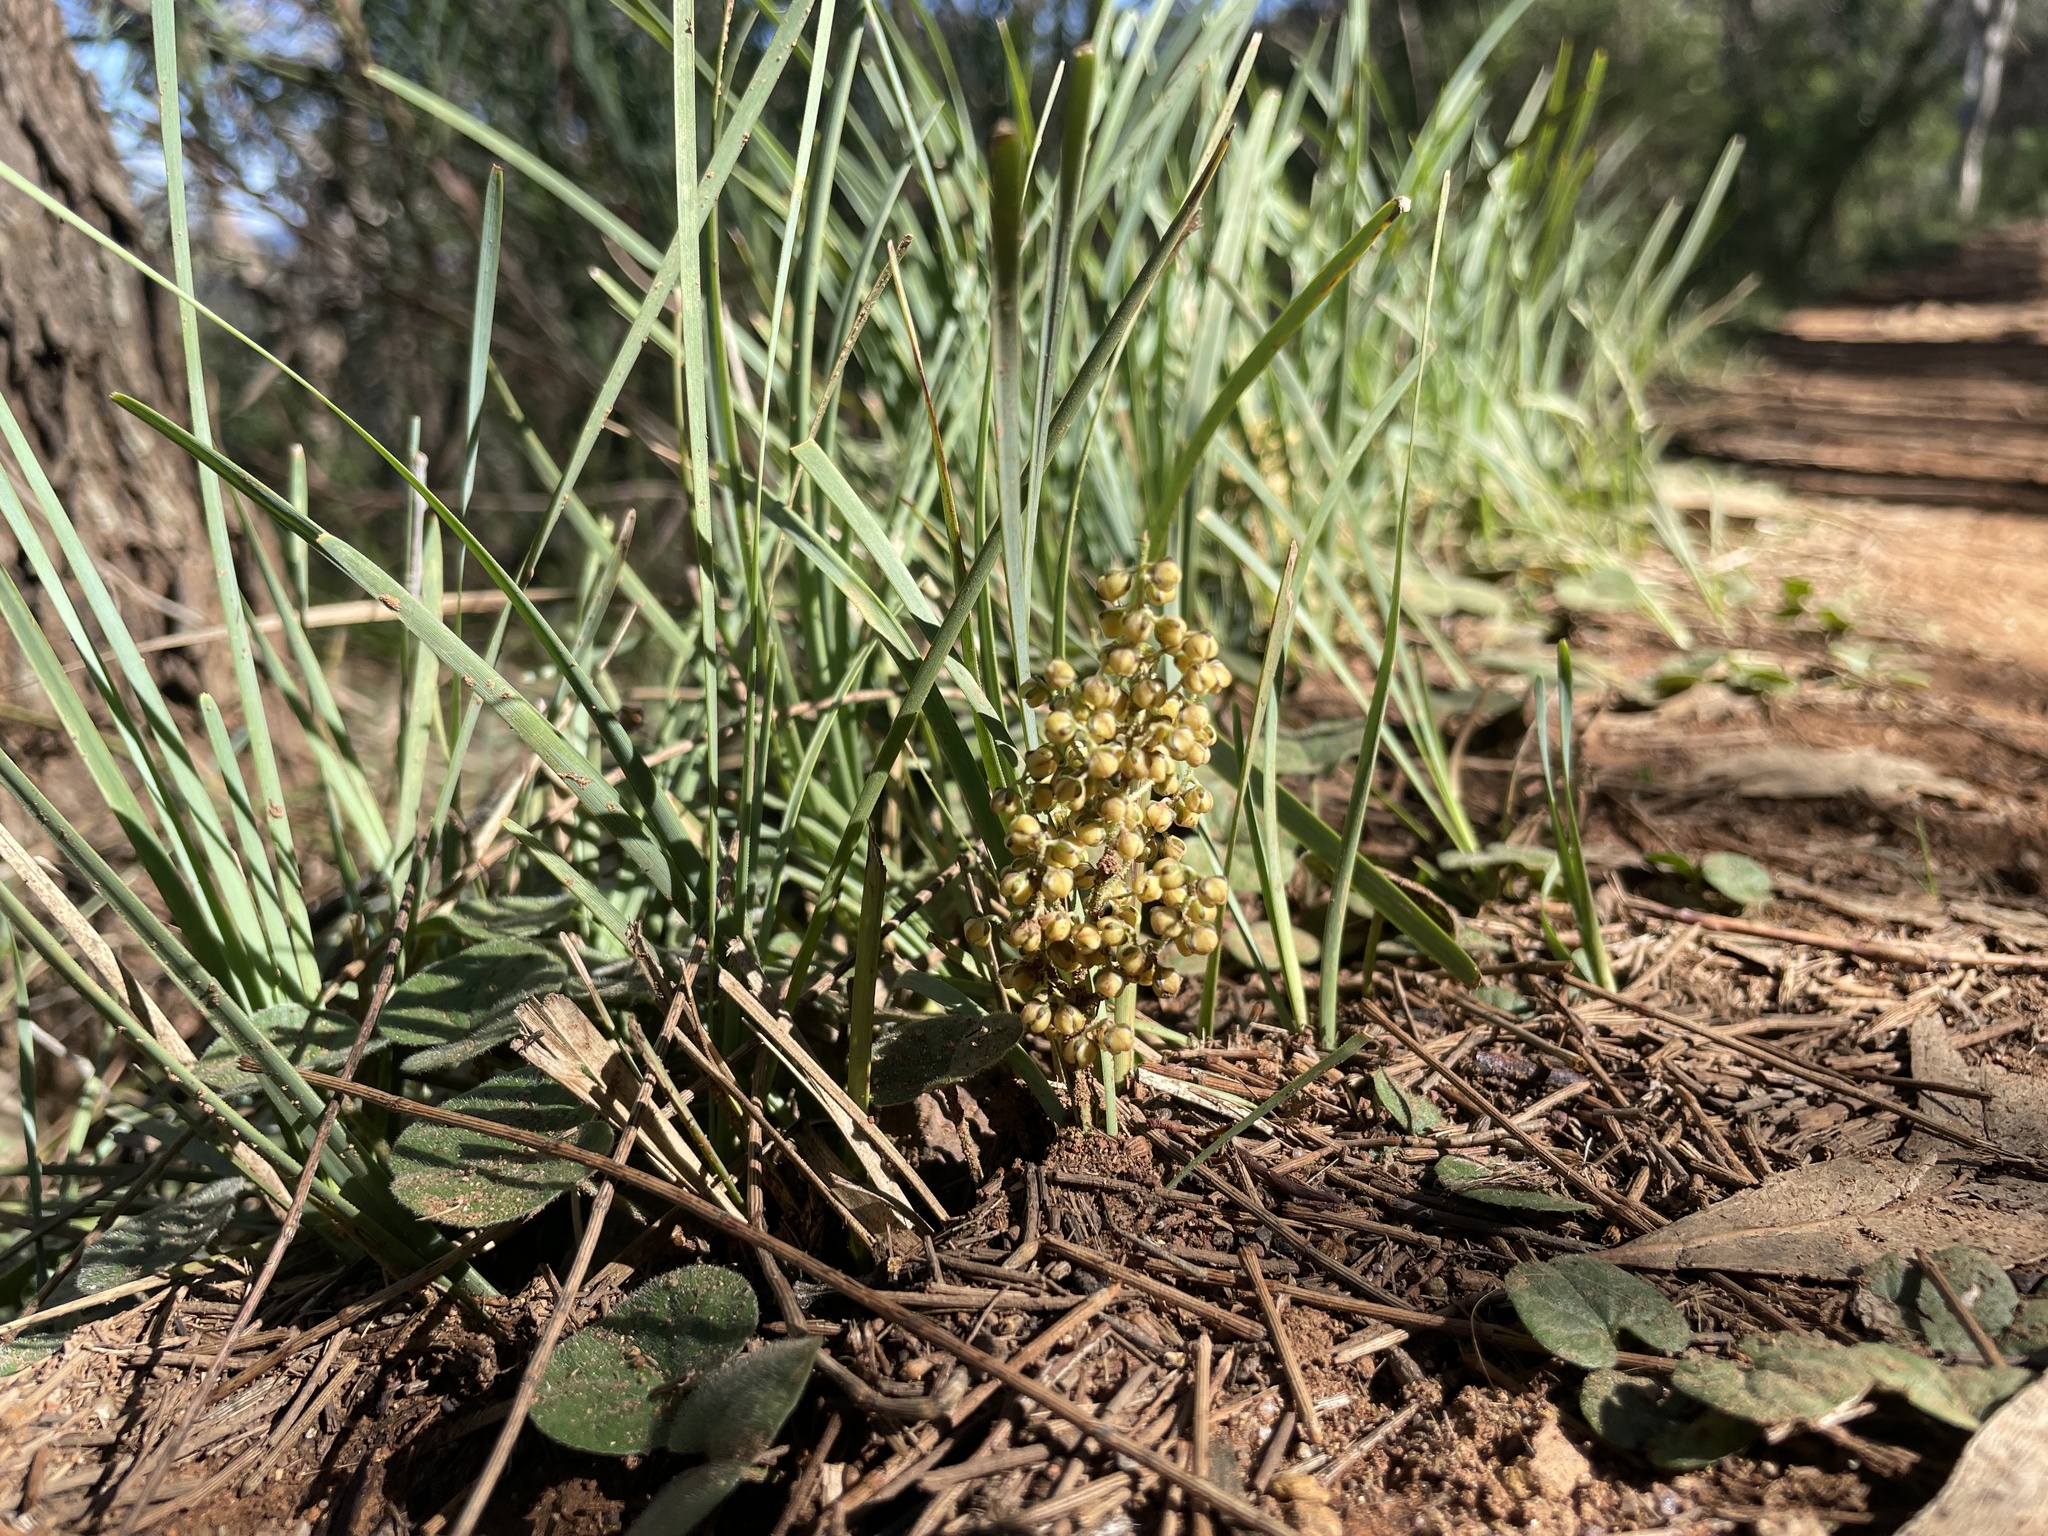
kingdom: Plantae
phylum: Tracheophyta
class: Liliopsida
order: Asparagales
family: Asparagaceae
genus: Lomandra
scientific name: Lomandra filiformis
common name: Wattle mat-rush
